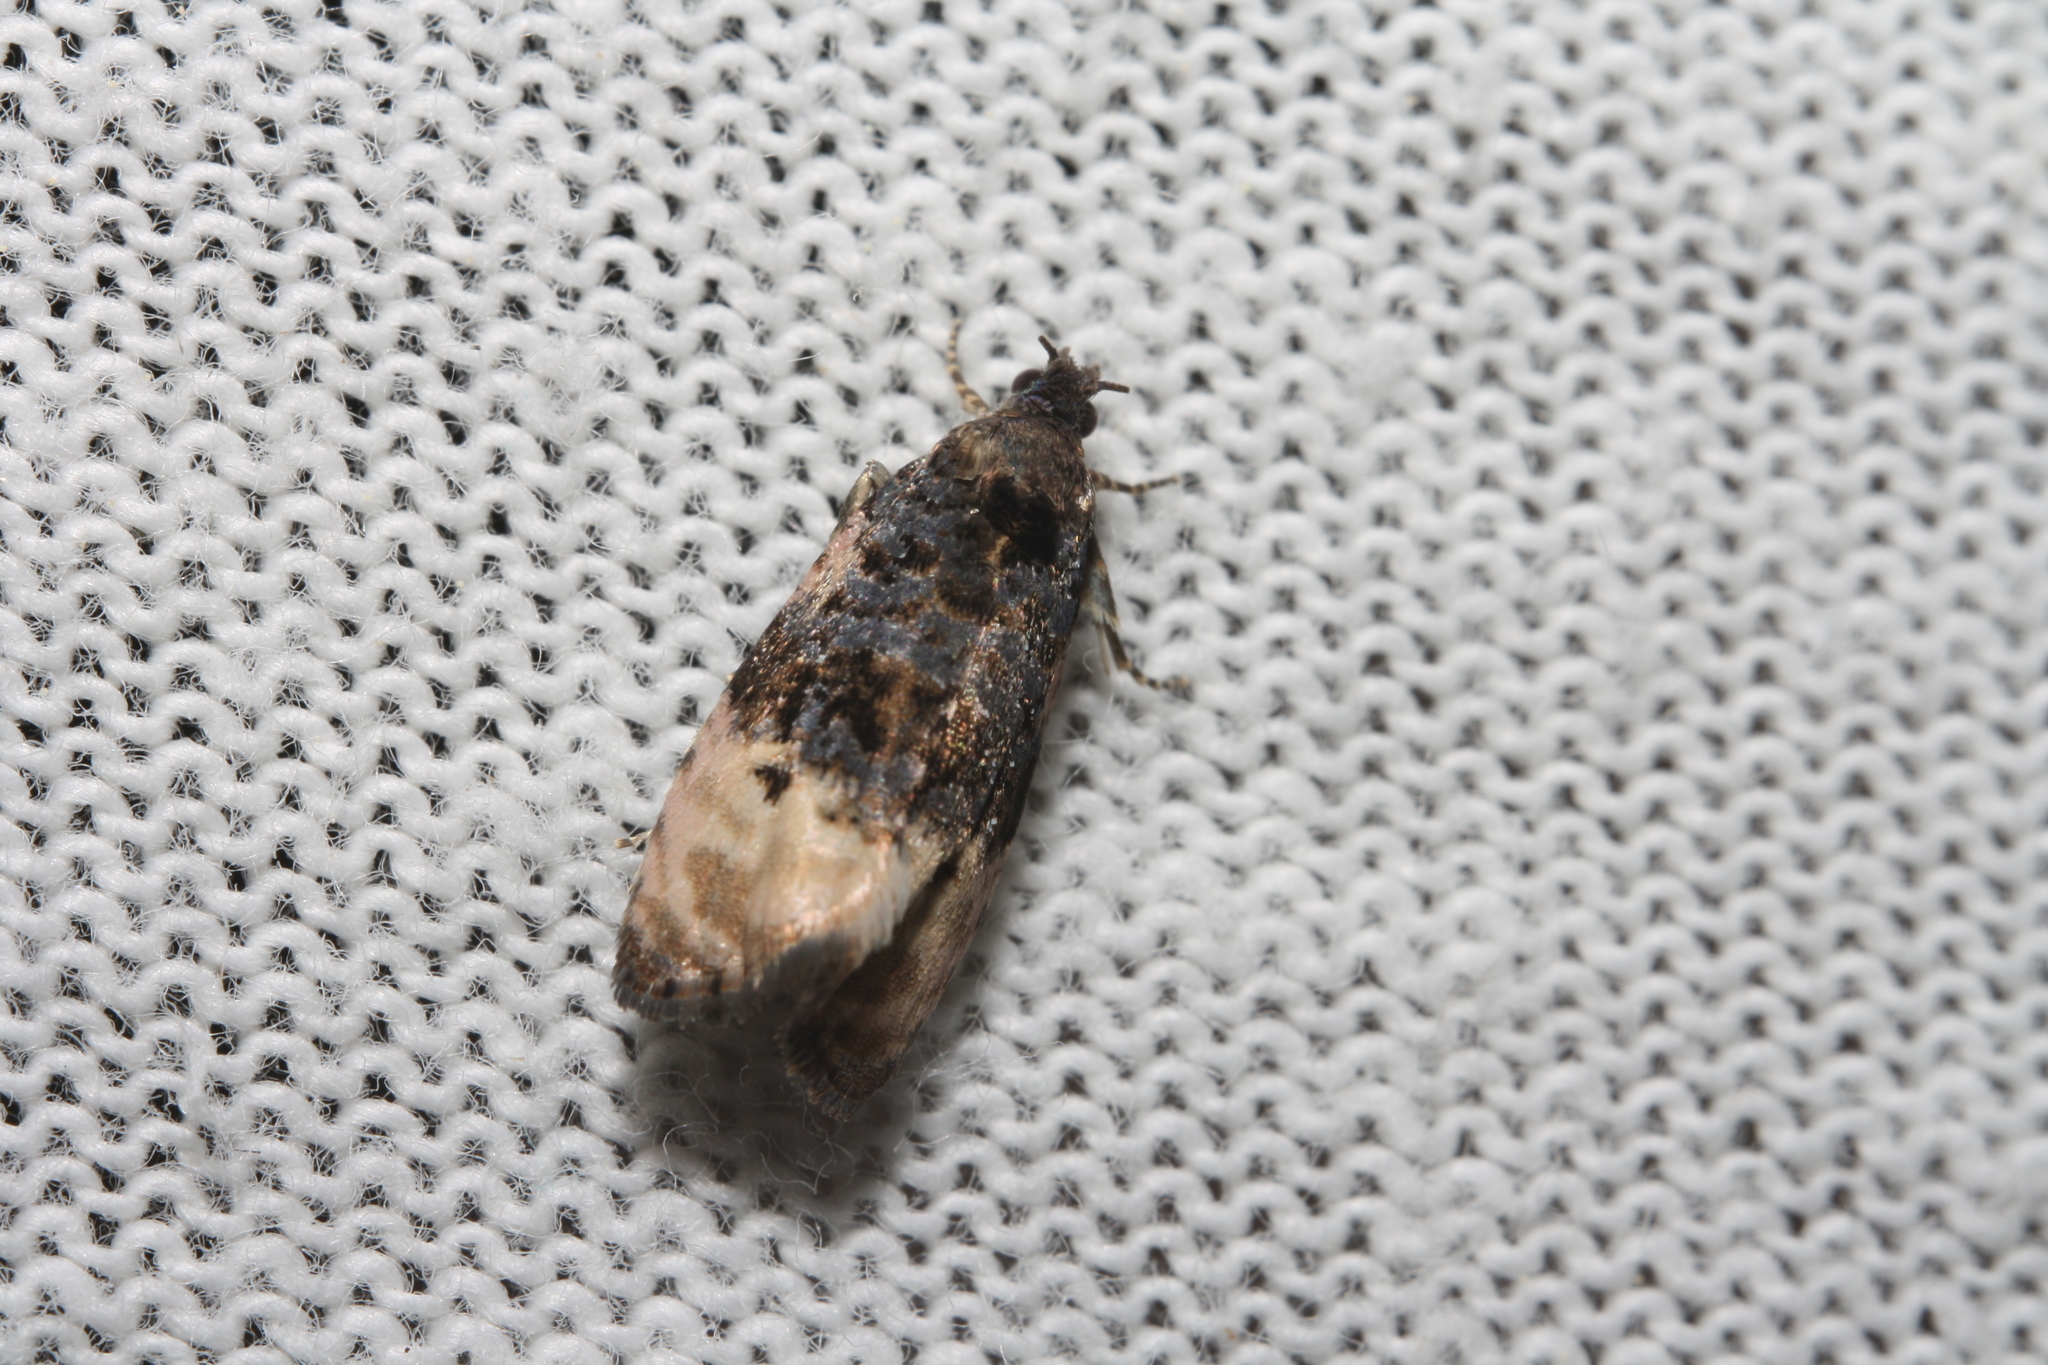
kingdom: Animalia
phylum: Arthropoda
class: Insecta
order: Lepidoptera
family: Tortricidae
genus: Metendothenia
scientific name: Metendothenia atropunctana
